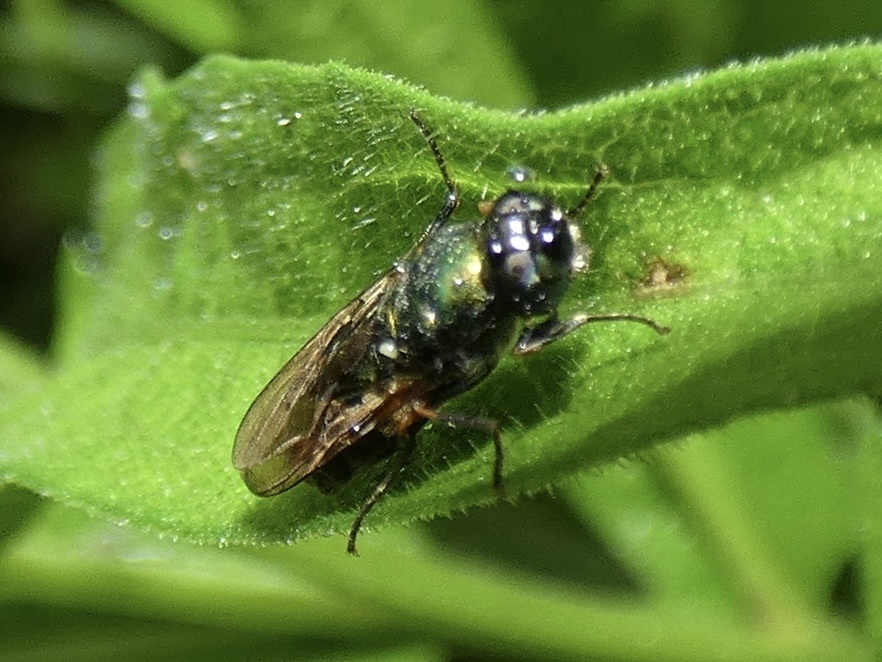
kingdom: Animalia
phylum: Arthropoda
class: Insecta
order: Diptera
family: Stratiomyidae
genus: Chloromyia
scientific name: Chloromyia formosa
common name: Soldier fly
